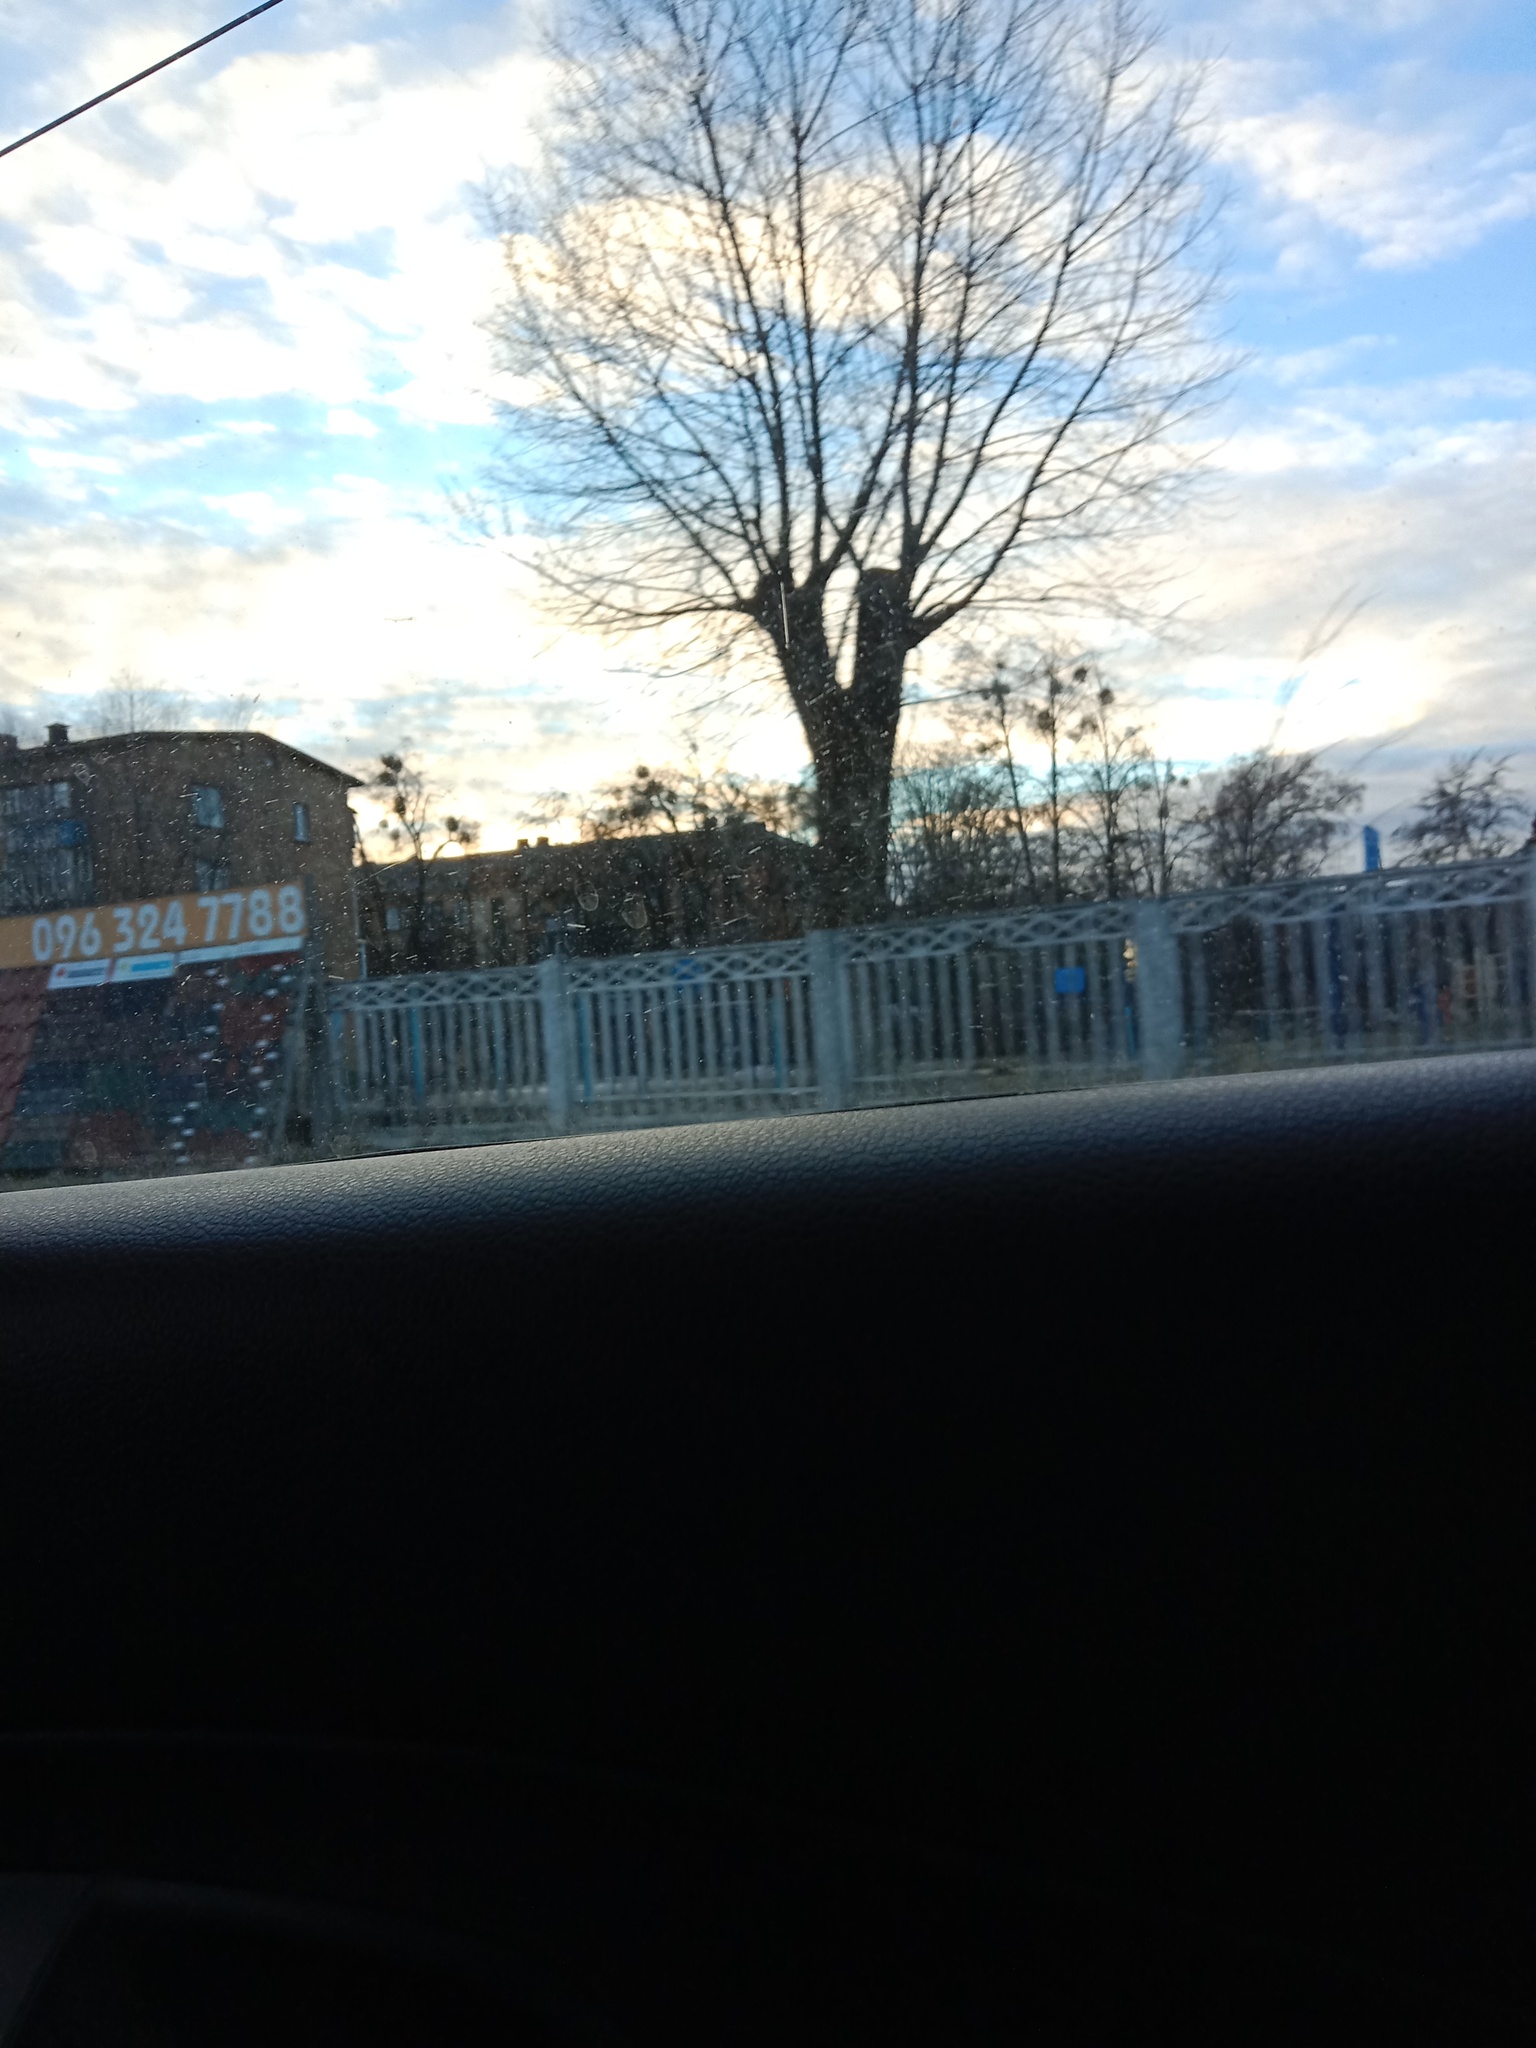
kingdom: Plantae
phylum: Tracheophyta
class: Magnoliopsida
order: Santalales
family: Viscaceae
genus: Viscum
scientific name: Viscum album
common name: Mistletoe
